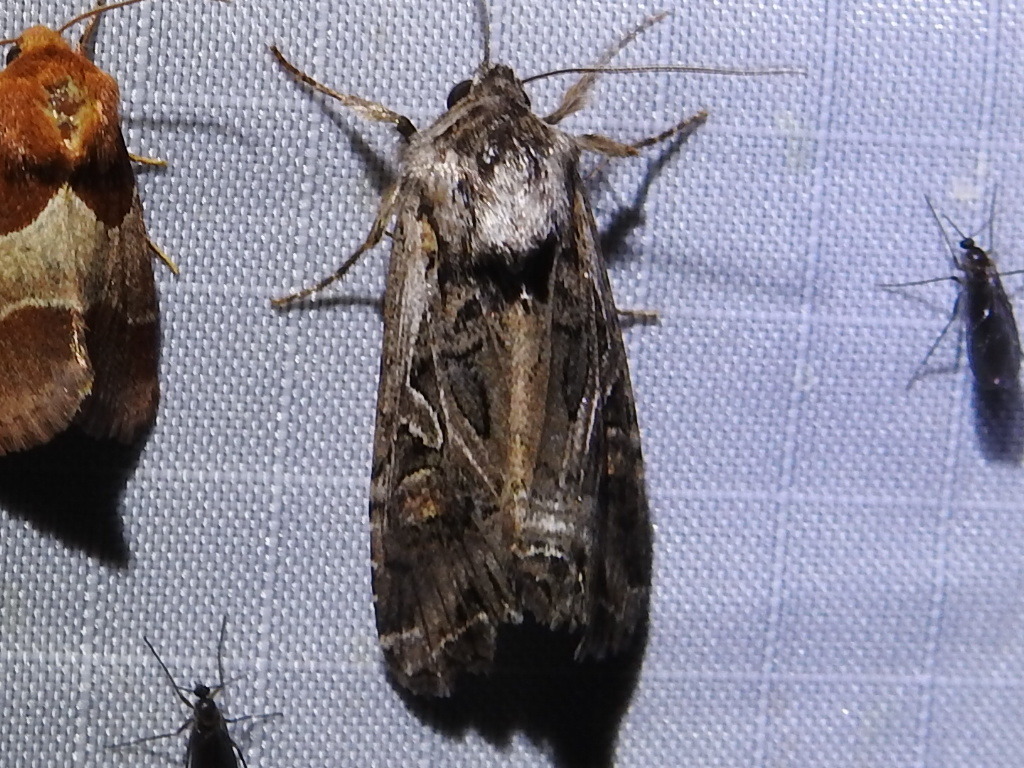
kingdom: Animalia
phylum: Arthropoda
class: Insecta
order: Lepidoptera
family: Noctuidae
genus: Trichordestra
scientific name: Trichordestra prodeniformis
